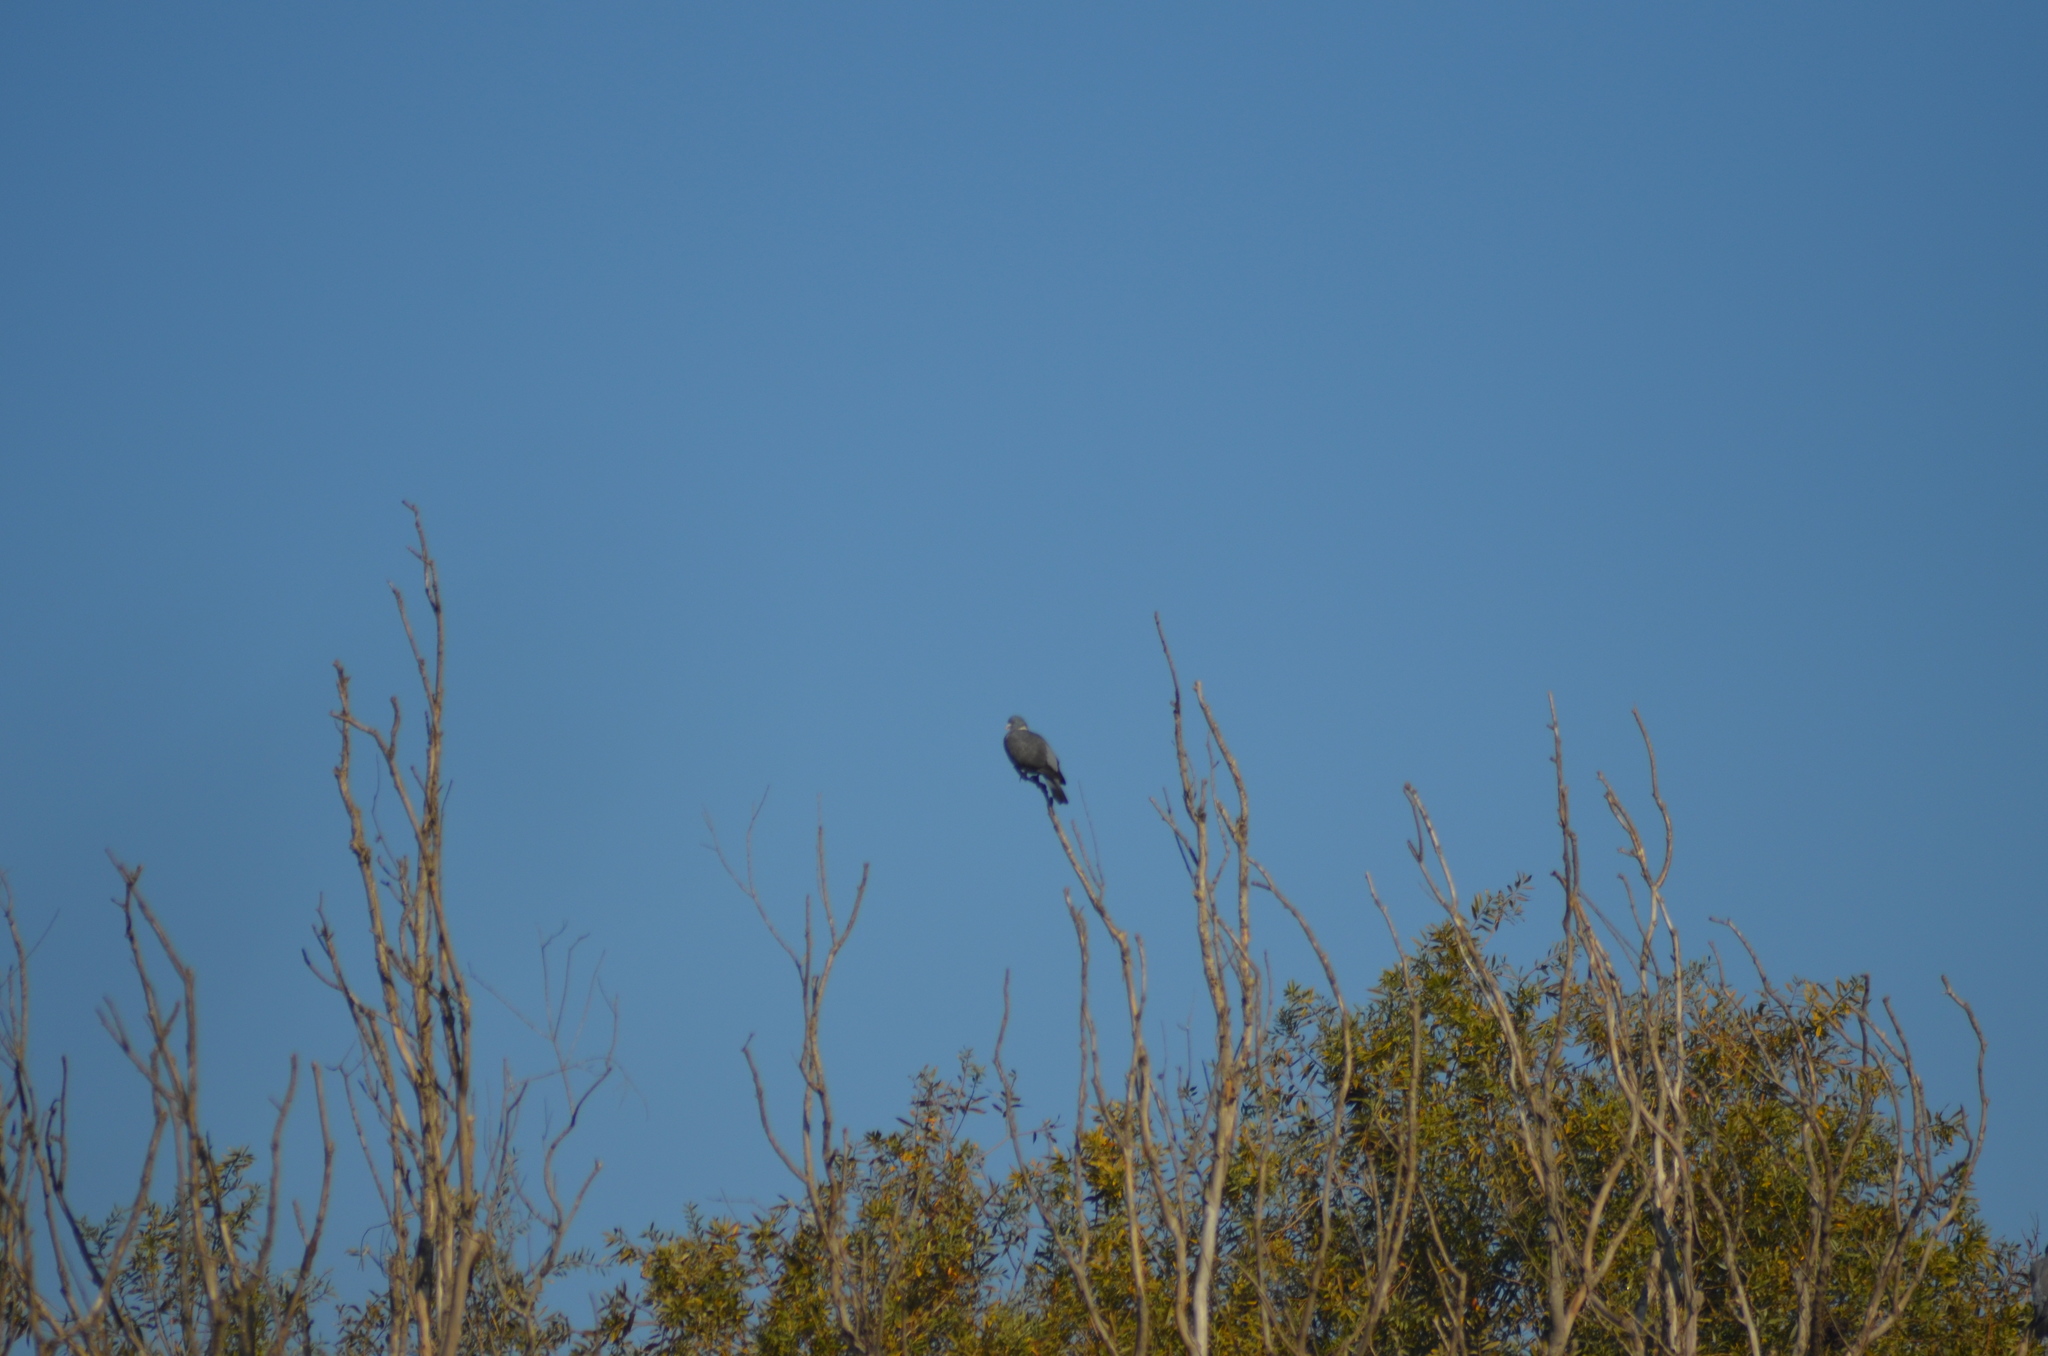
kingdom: Animalia
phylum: Chordata
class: Aves
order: Columbiformes
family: Columbidae
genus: Columba
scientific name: Columba palumbus
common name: Common wood pigeon
